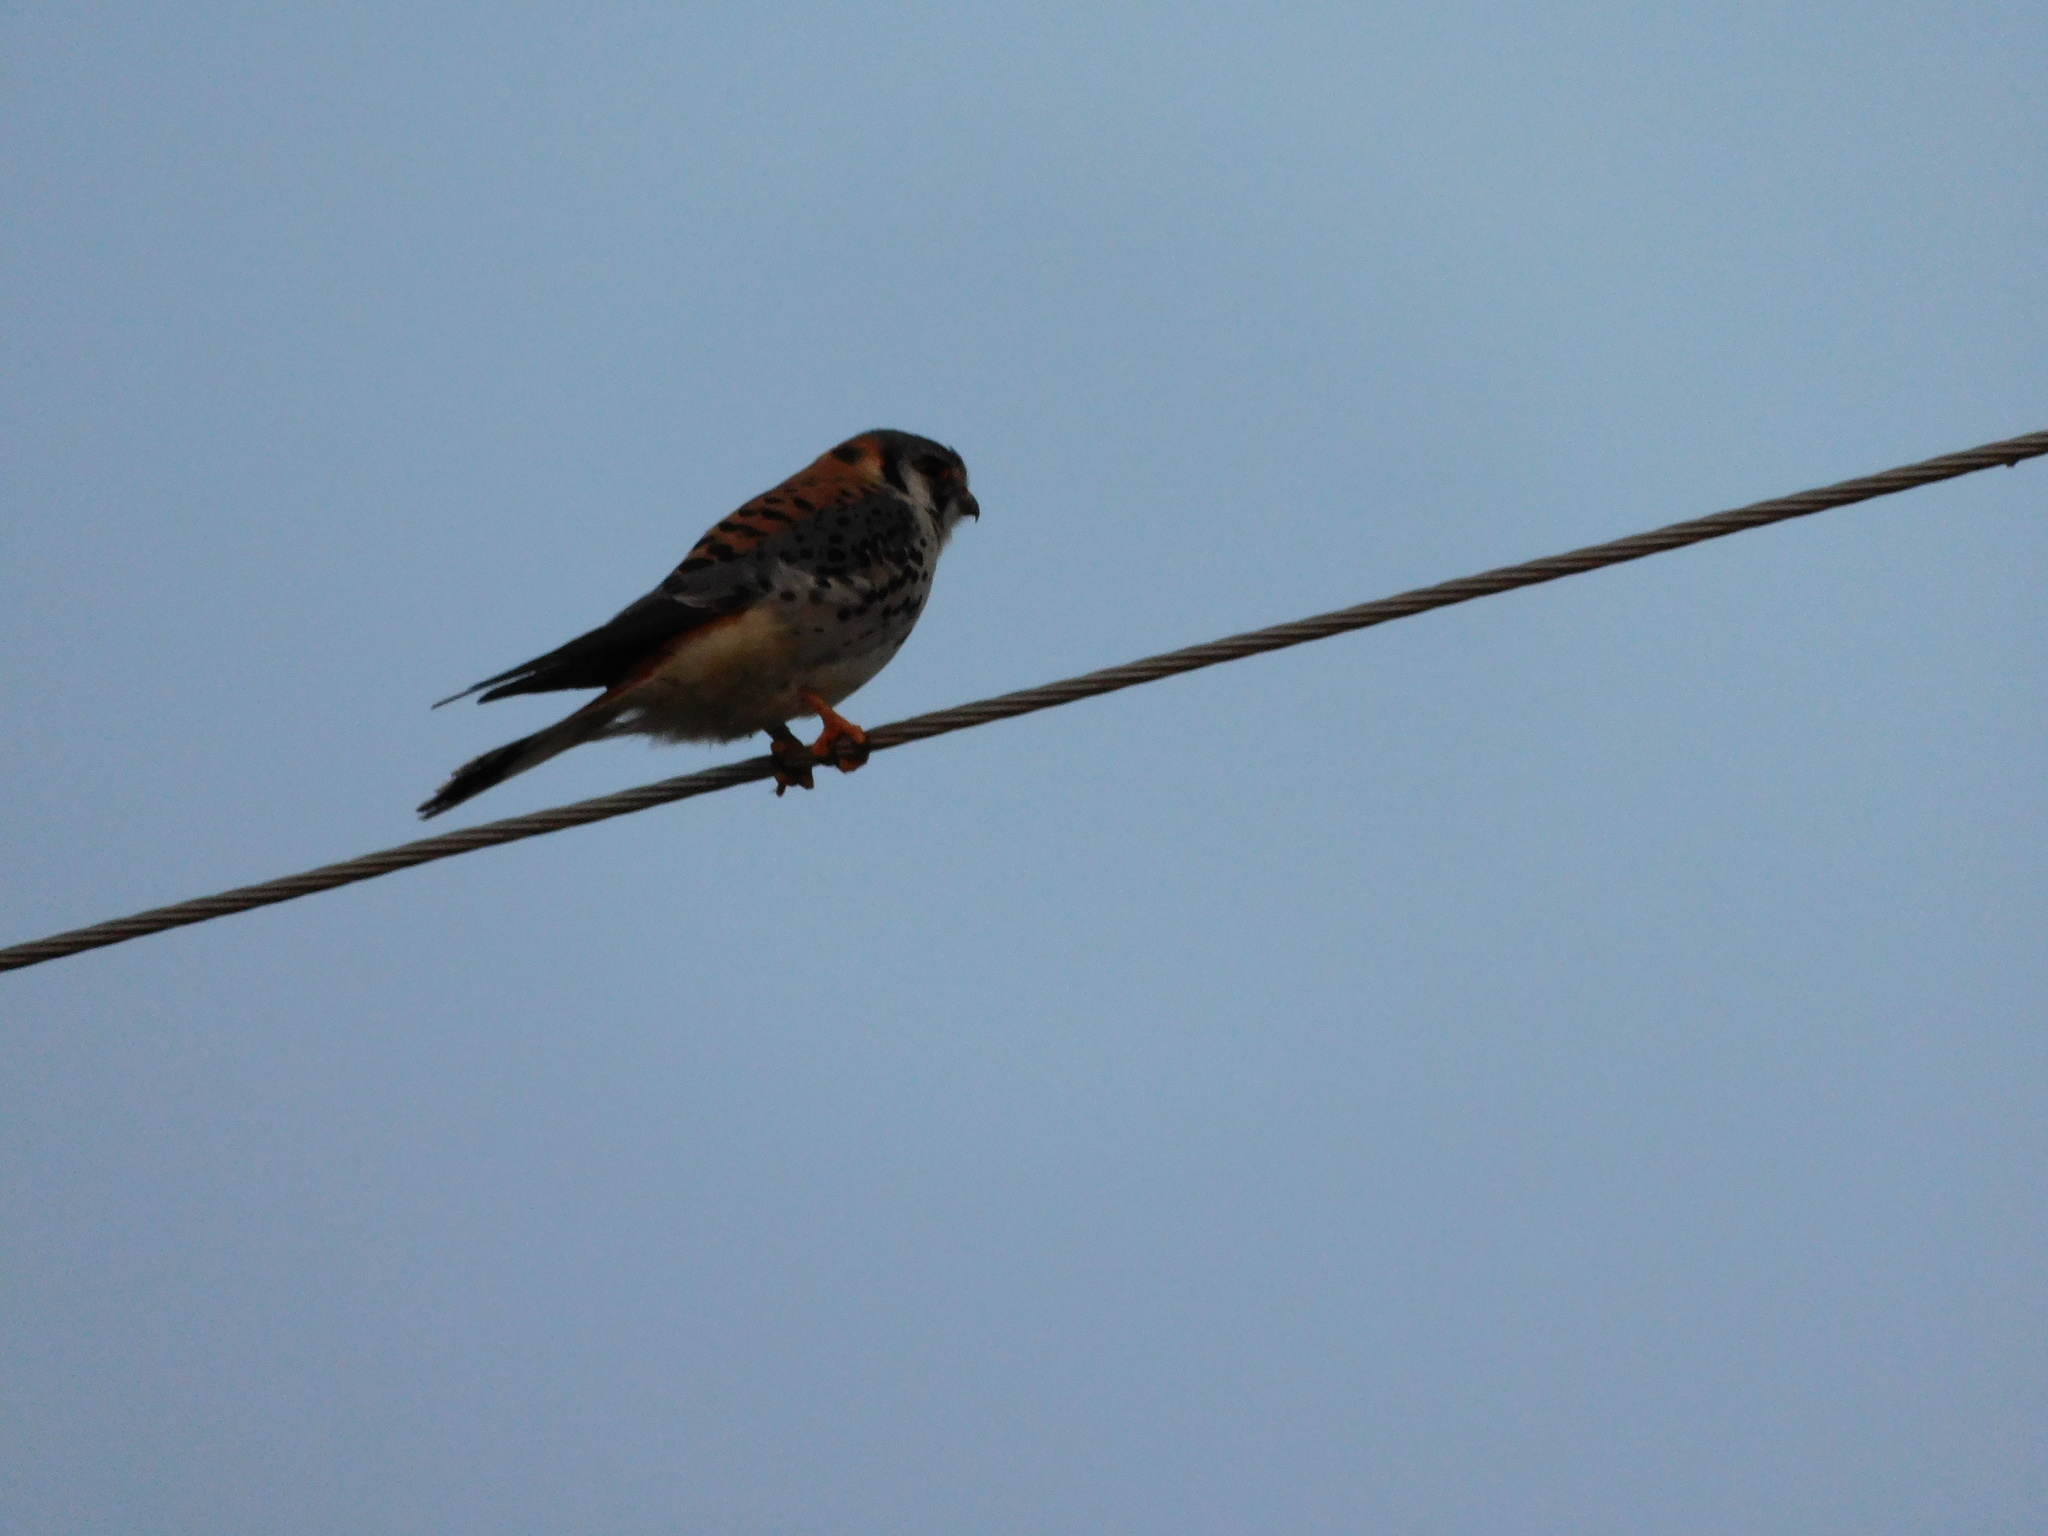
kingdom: Animalia
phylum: Chordata
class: Aves
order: Falconiformes
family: Falconidae
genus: Falco
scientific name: Falco sparverius
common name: American kestrel
